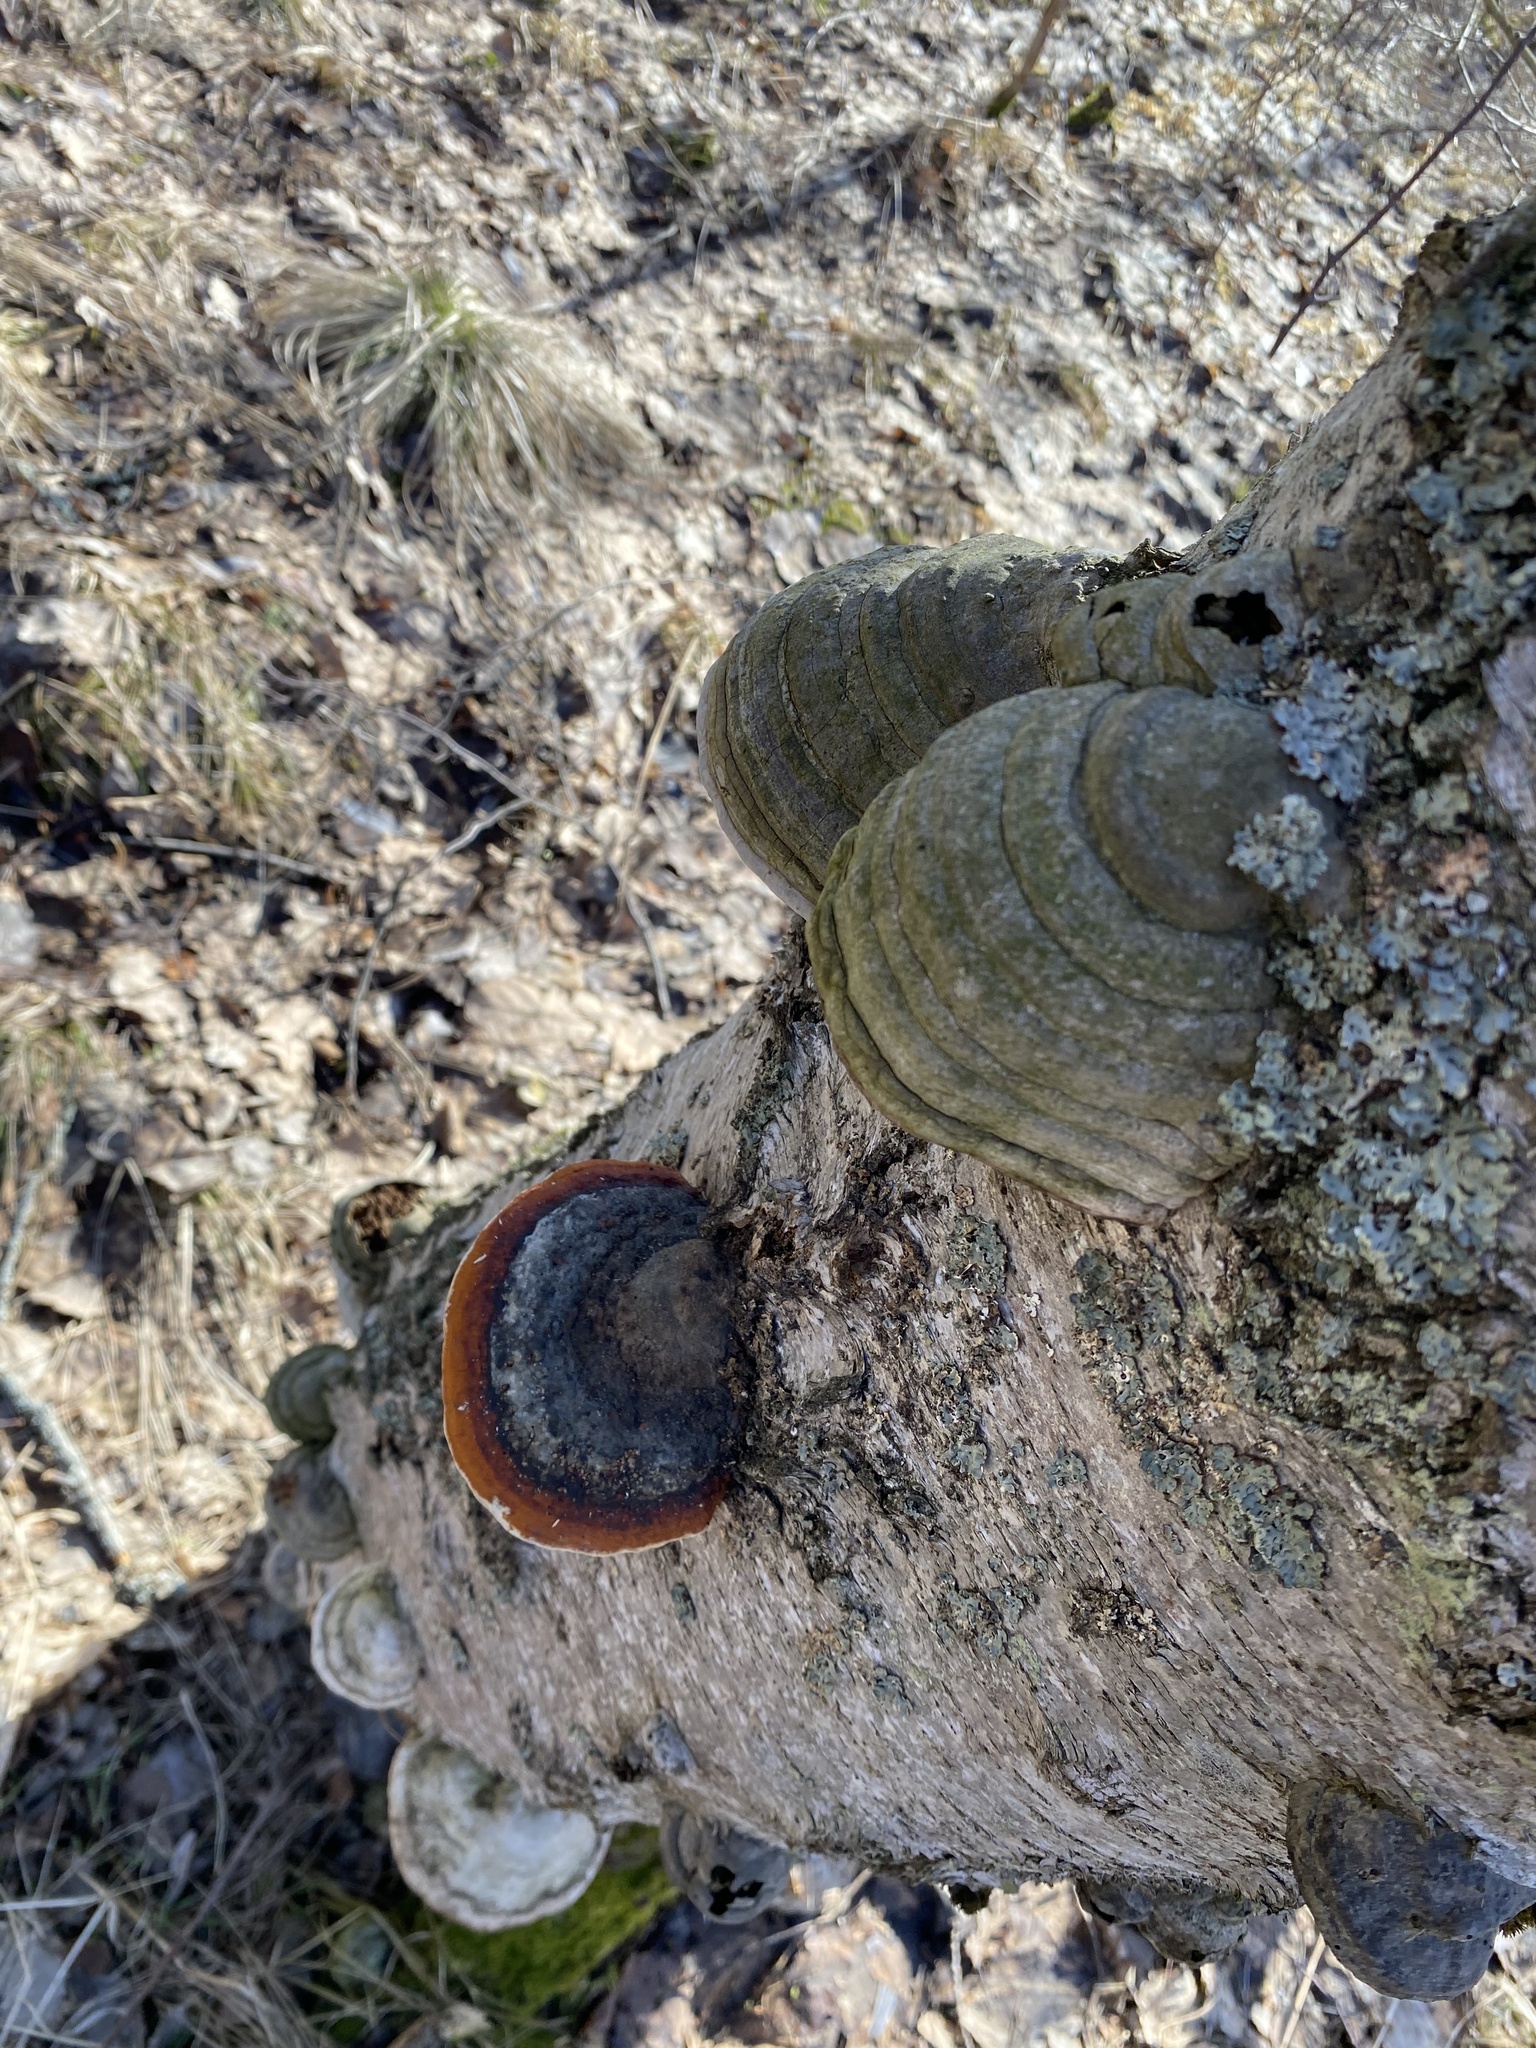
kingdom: Fungi
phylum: Basidiomycota
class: Agaricomycetes
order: Polyporales
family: Fomitopsidaceae
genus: Fomitopsis
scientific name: Fomitopsis pinicola
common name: Red-belted bracket
